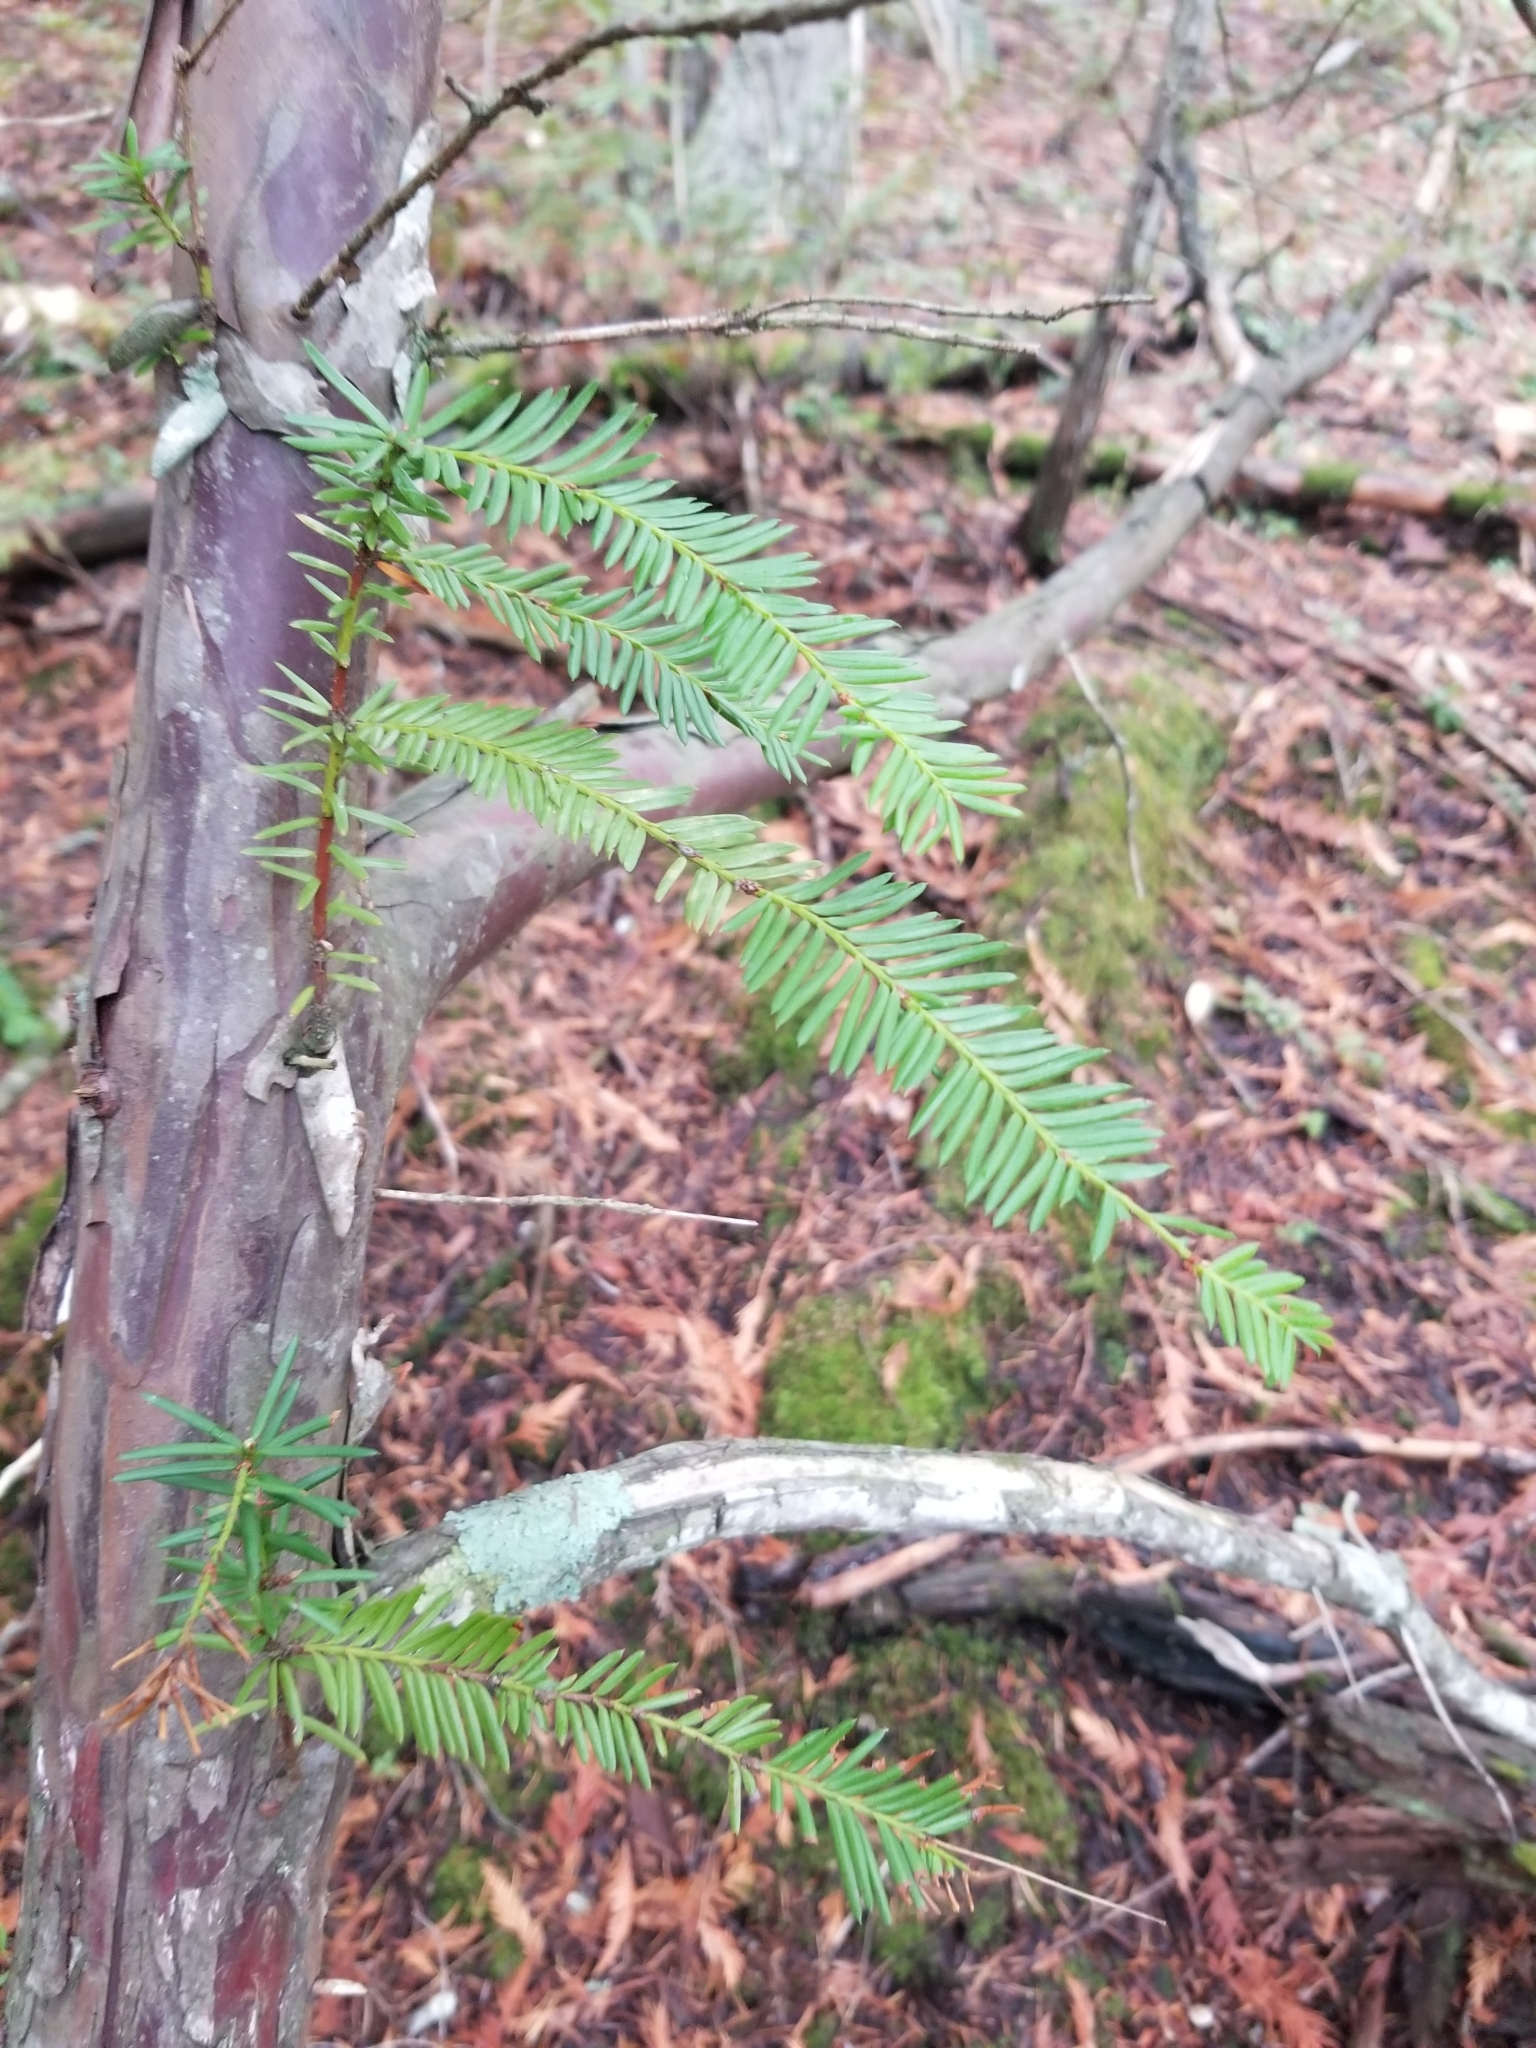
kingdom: Plantae
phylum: Tracheophyta
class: Pinopsida
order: Pinales
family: Taxaceae
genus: Taxus
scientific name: Taxus brevifolia
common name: Pacific yew
